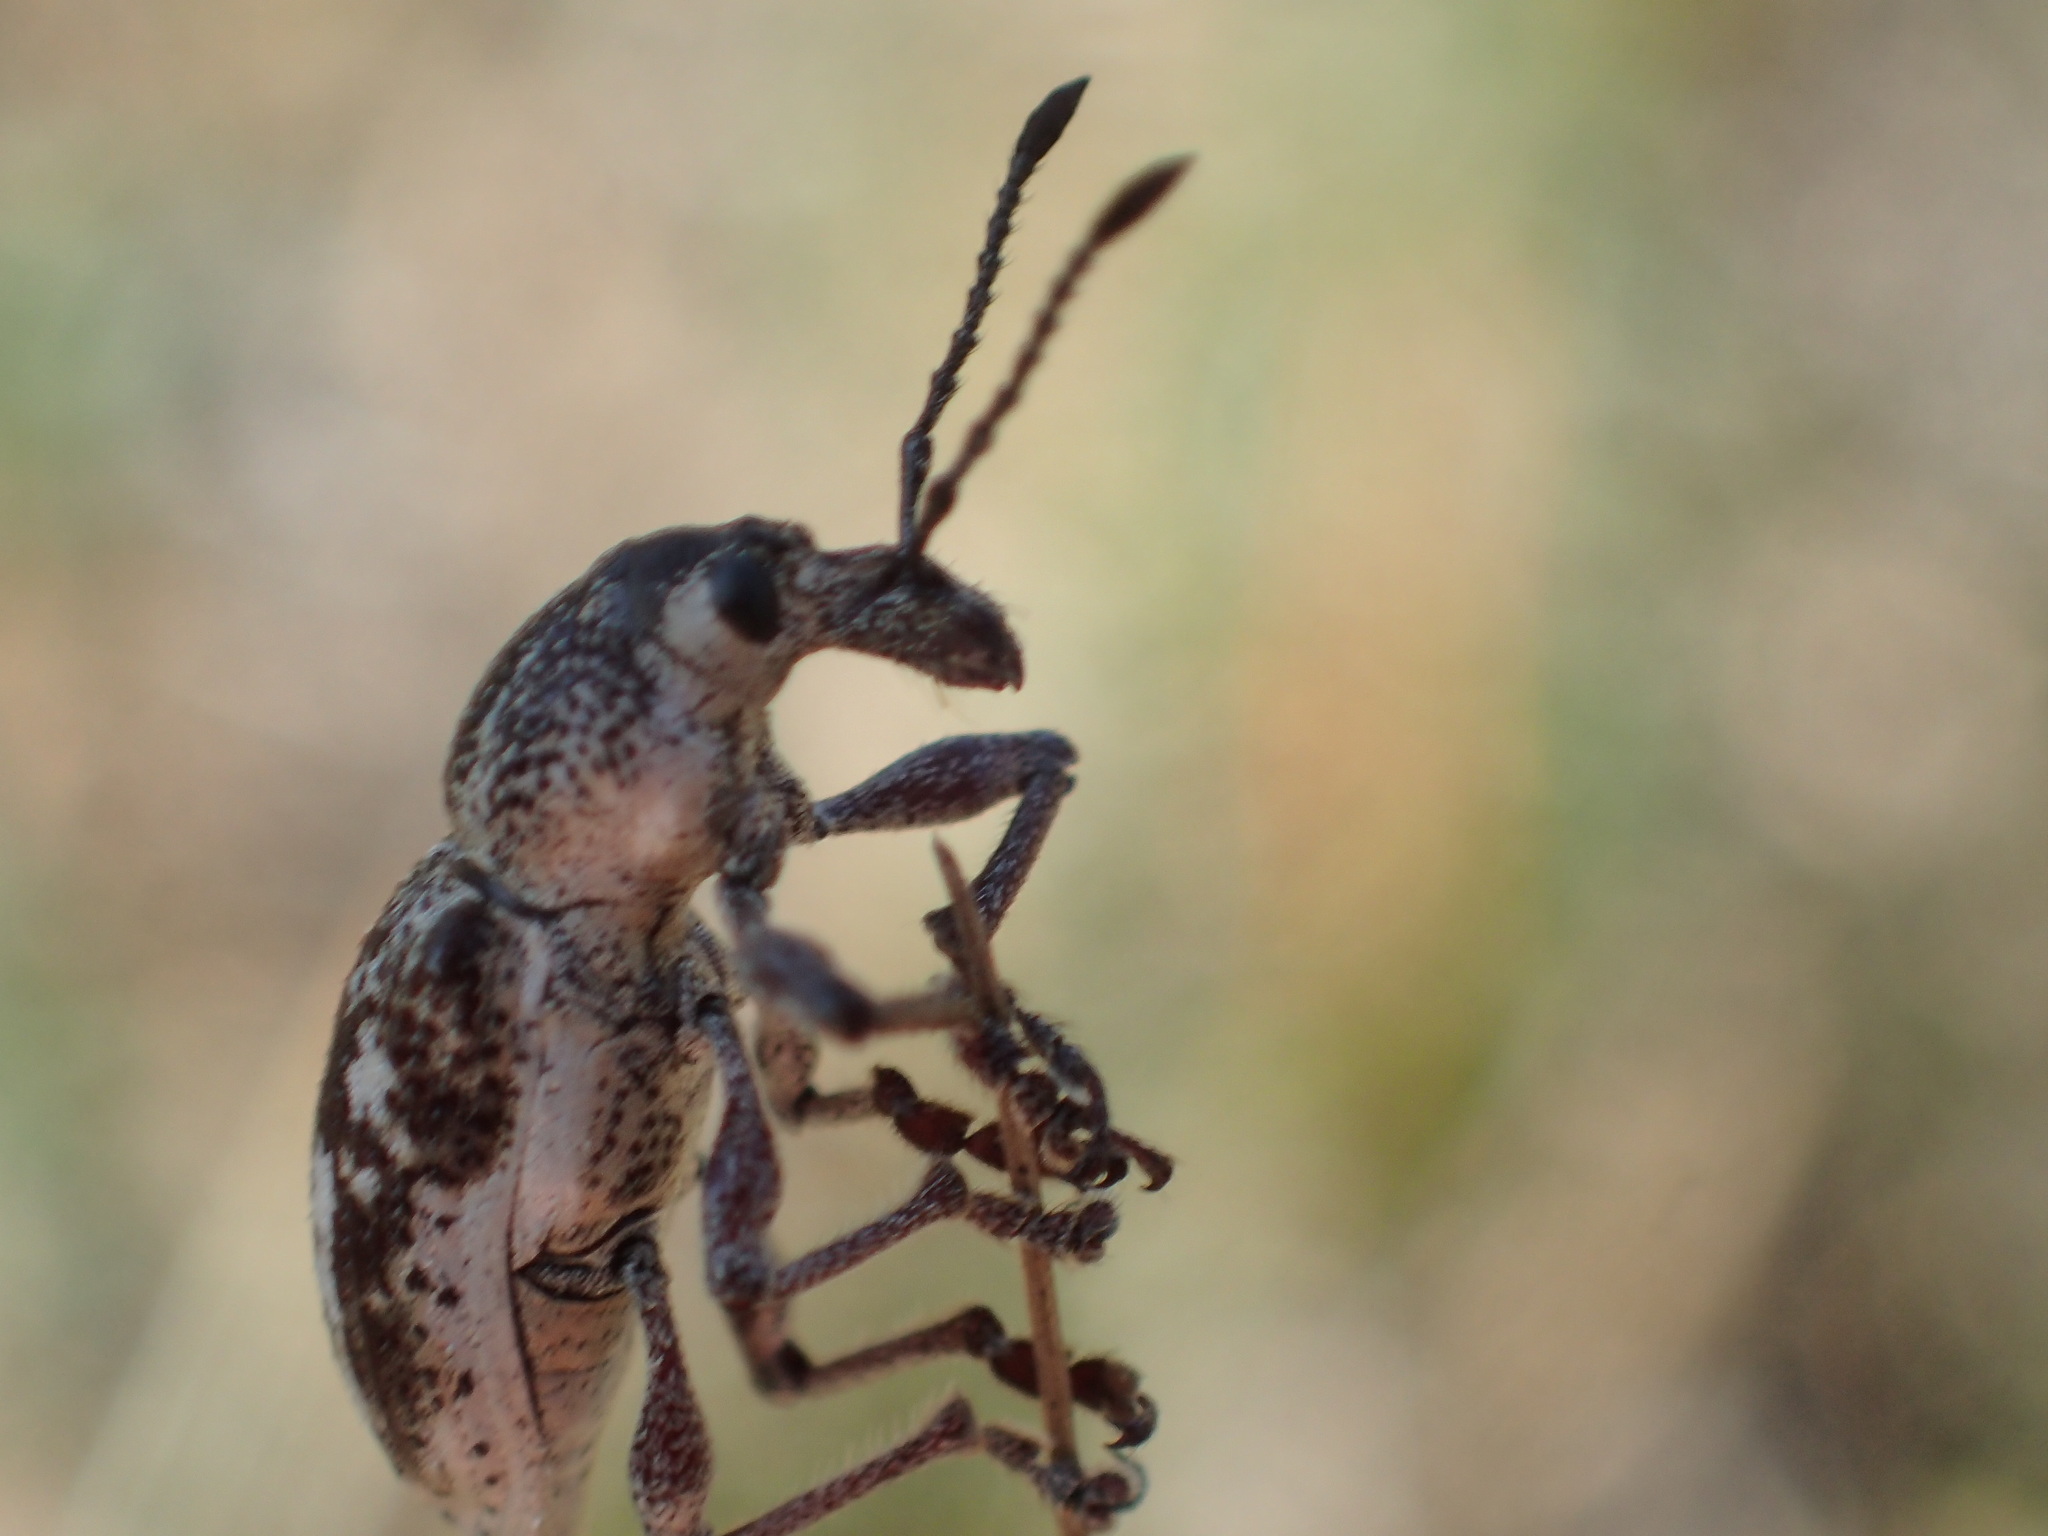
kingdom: Animalia
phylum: Arthropoda
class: Insecta
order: Coleoptera
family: Curculionidae
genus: Pelororhinus
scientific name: Pelororhinus
